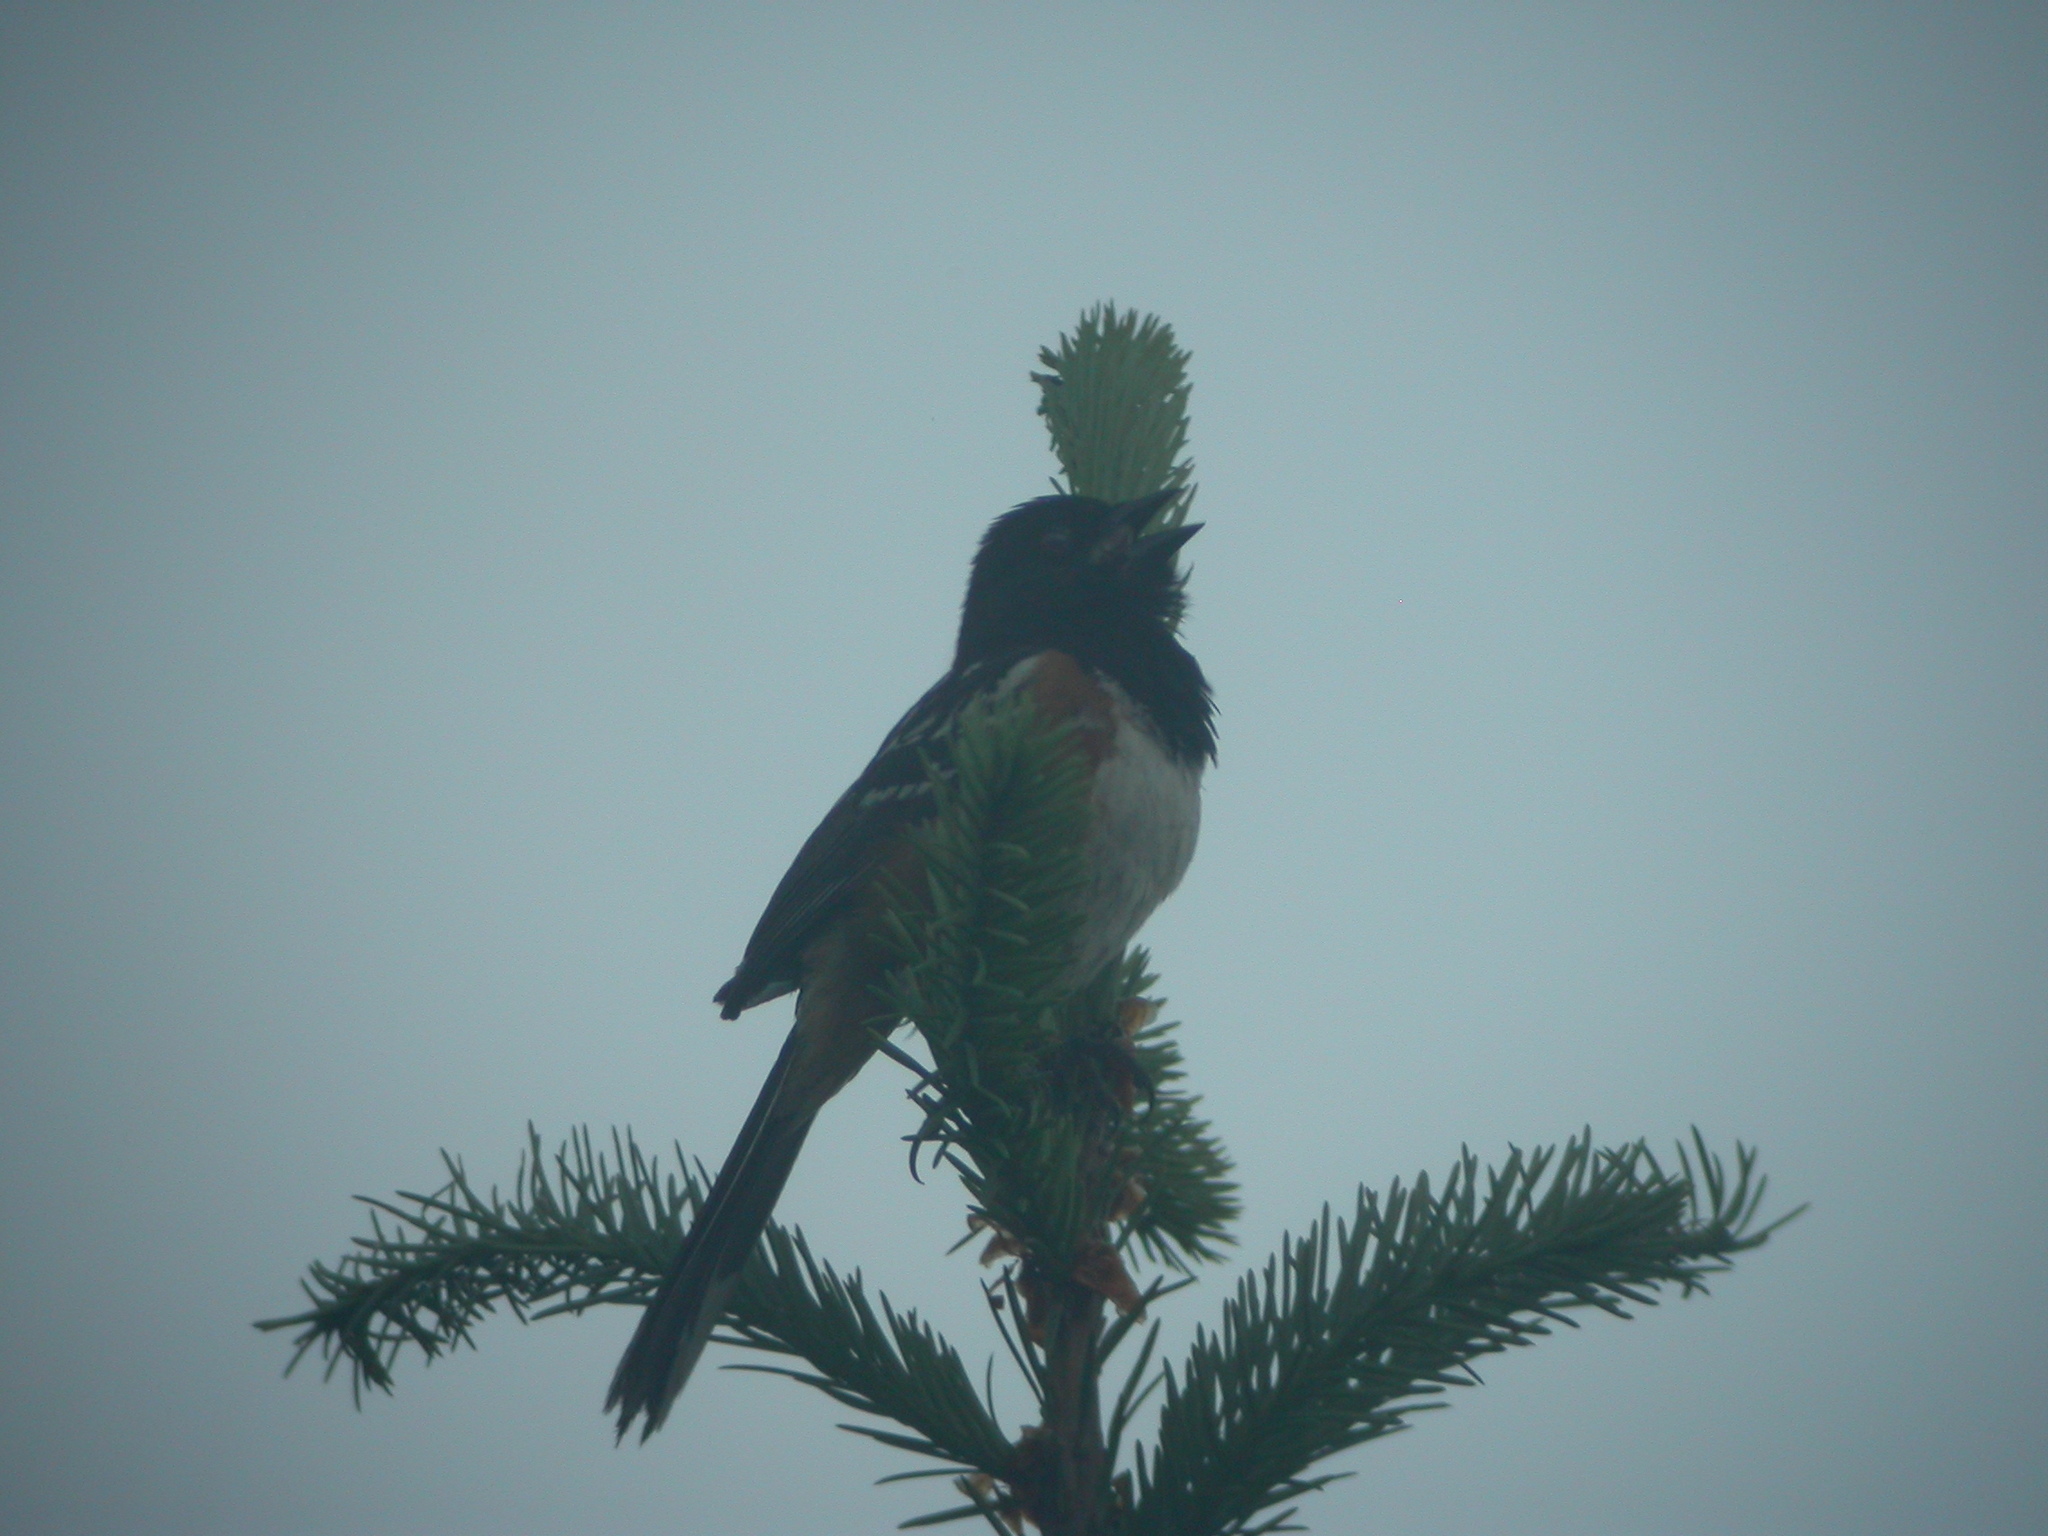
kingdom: Animalia
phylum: Chordata
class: Aves
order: Passeriformes
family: Passerellidae
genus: Pipilo
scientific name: Pipilo maculatus
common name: Spotted towhee
